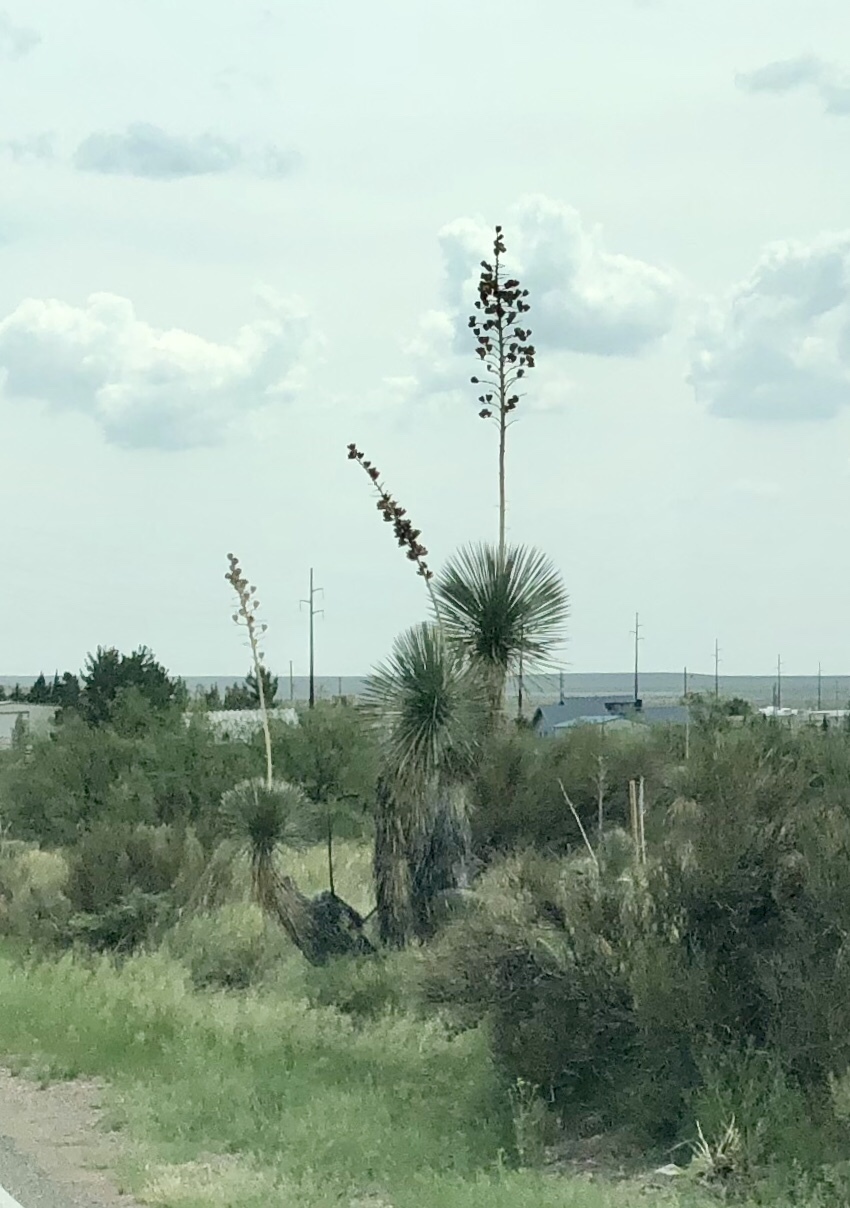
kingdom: Plantae
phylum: Tracheophyta
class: Liliopsida
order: Asparagales
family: Asparagaceae
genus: Yucca
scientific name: Yucca elata
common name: Palmella
